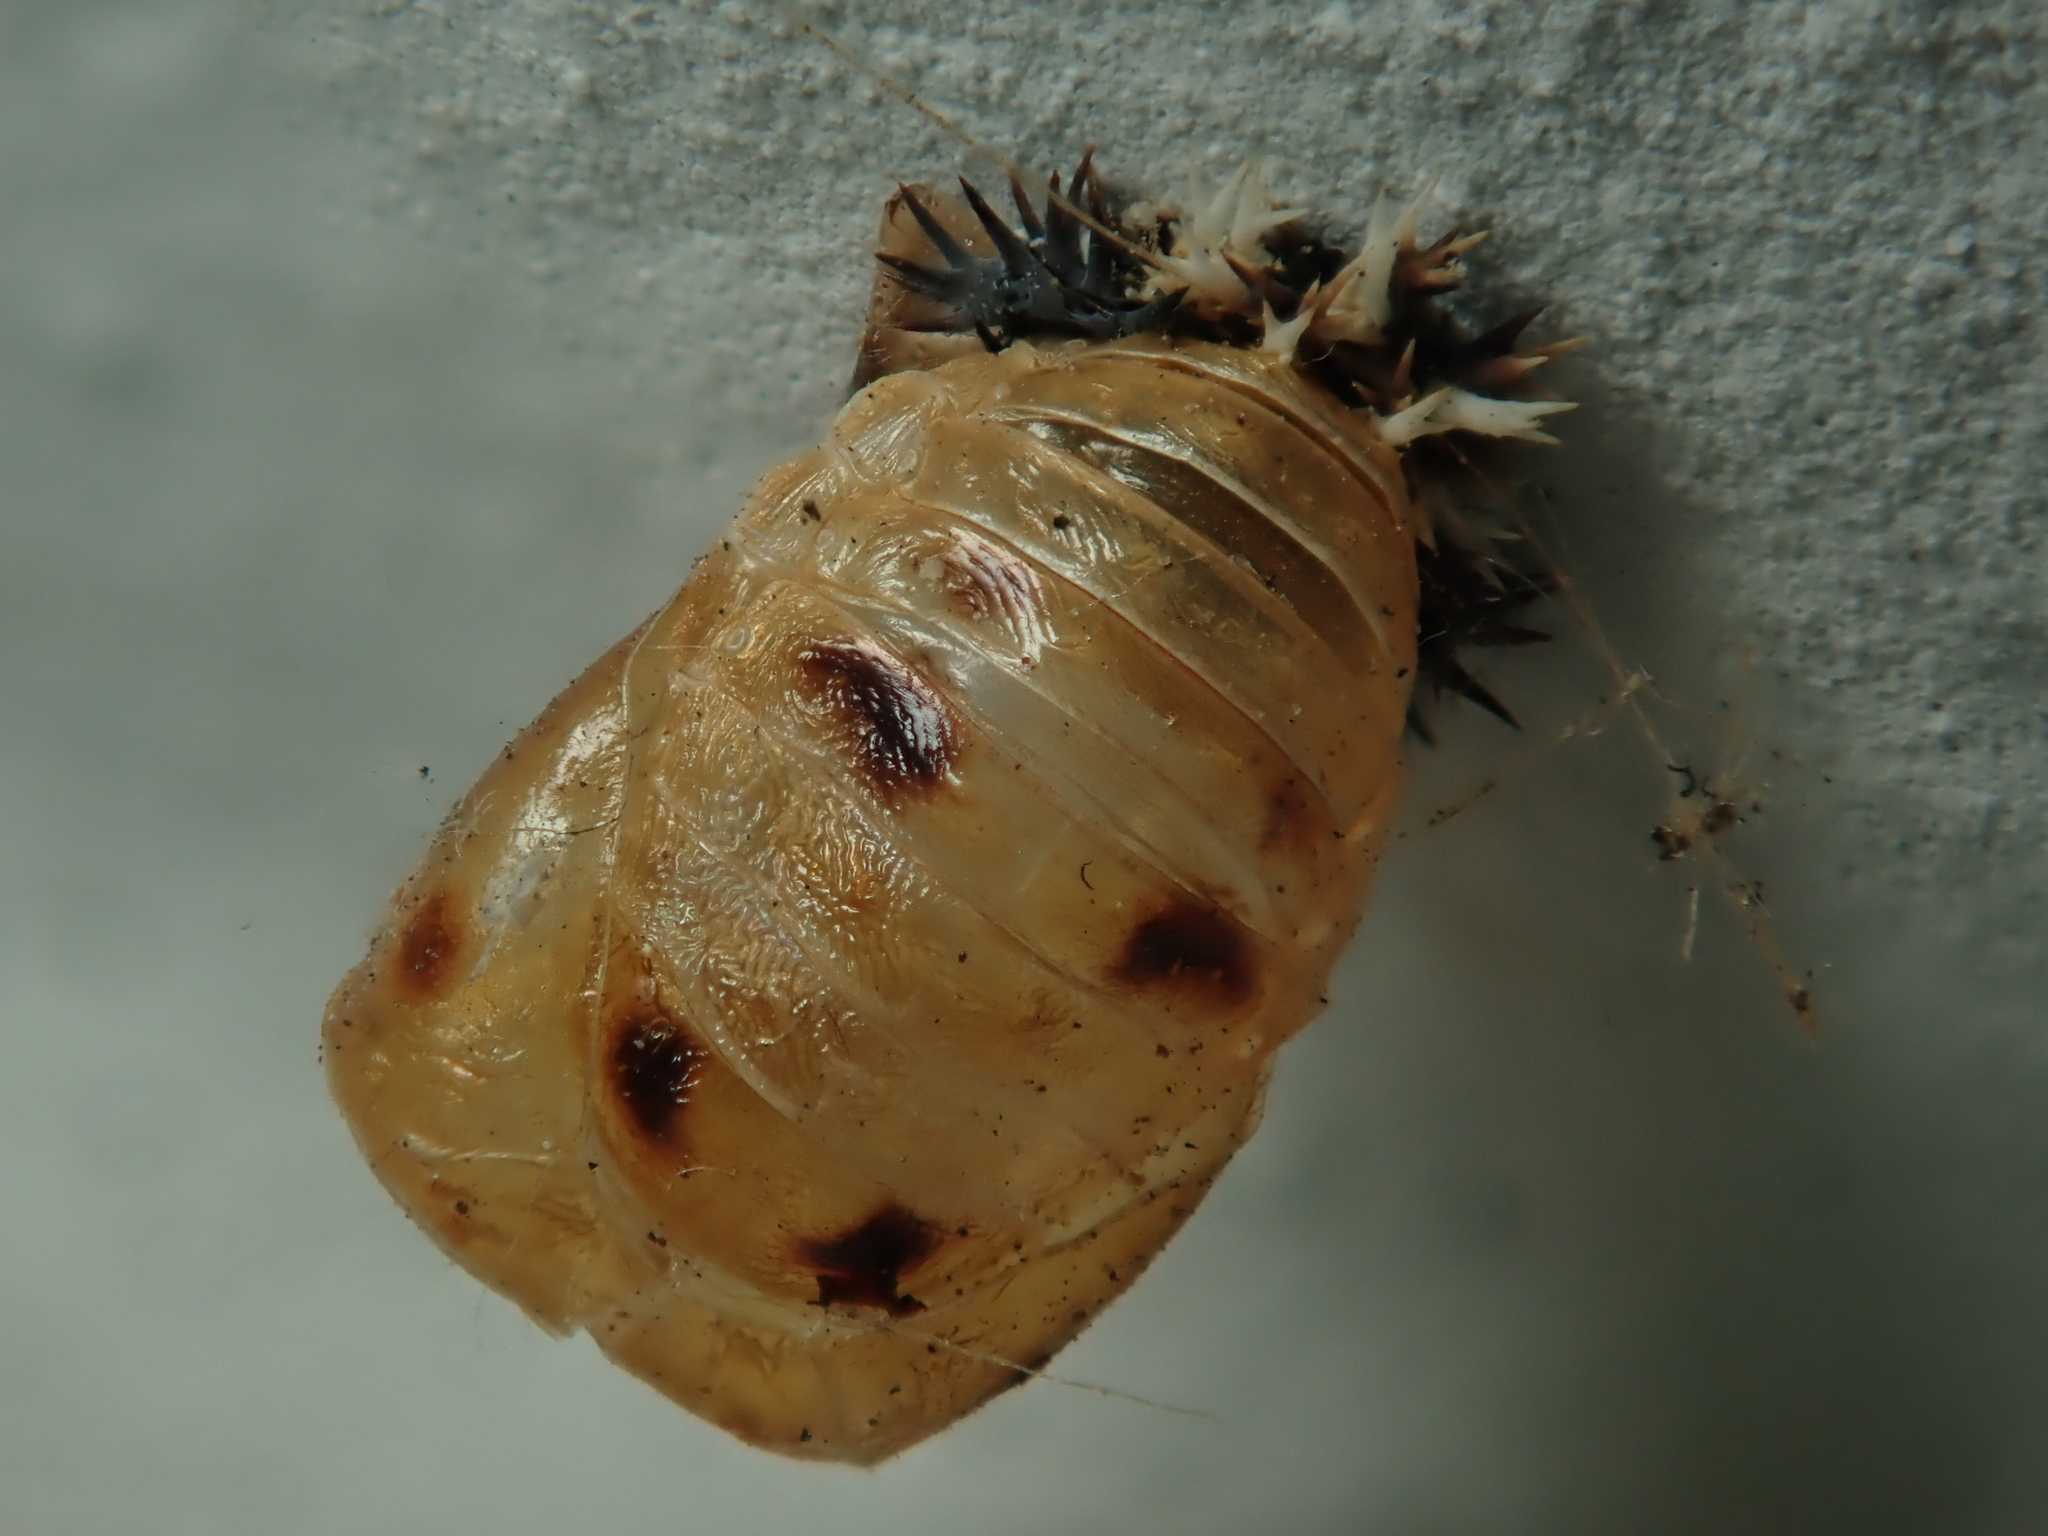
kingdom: Animalia
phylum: Arthropoda
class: Insecta
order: Coleoptera
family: Coccinellidae
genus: Harmonia
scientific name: Harmonia axyridis
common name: Harlequin ladybird
